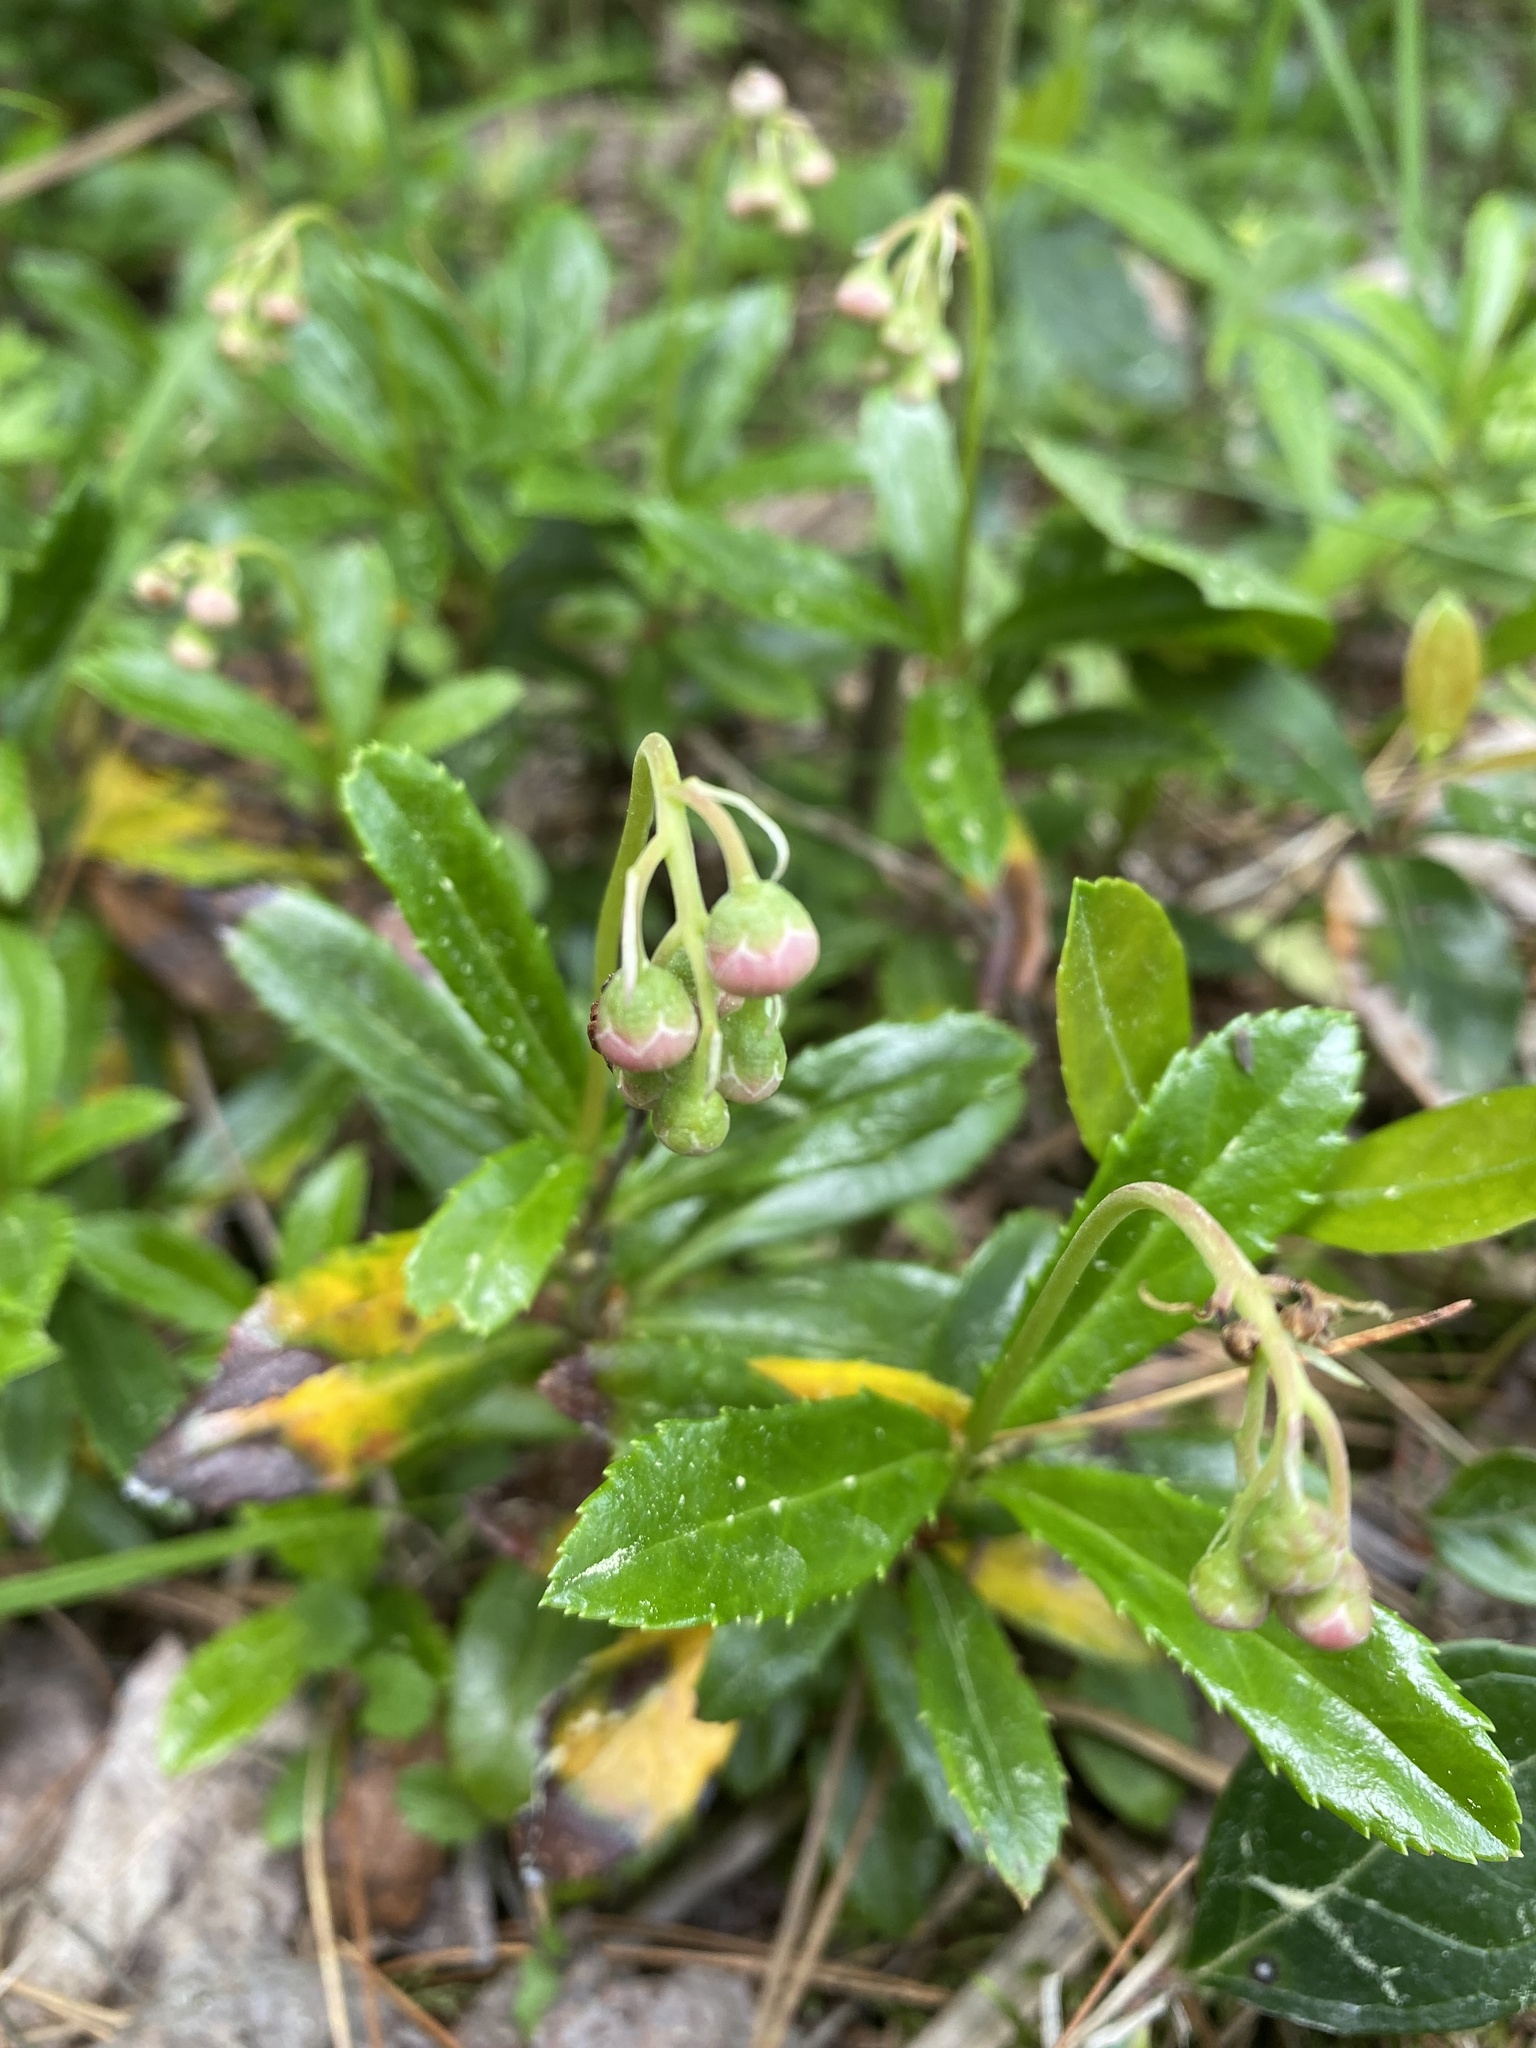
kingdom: Plantae
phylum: Tracheophyta
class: Magnoliopsida
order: Ericales
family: Ericaceae
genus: Chimaphila
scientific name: Chimaphila umbellata
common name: Pipsissewa
